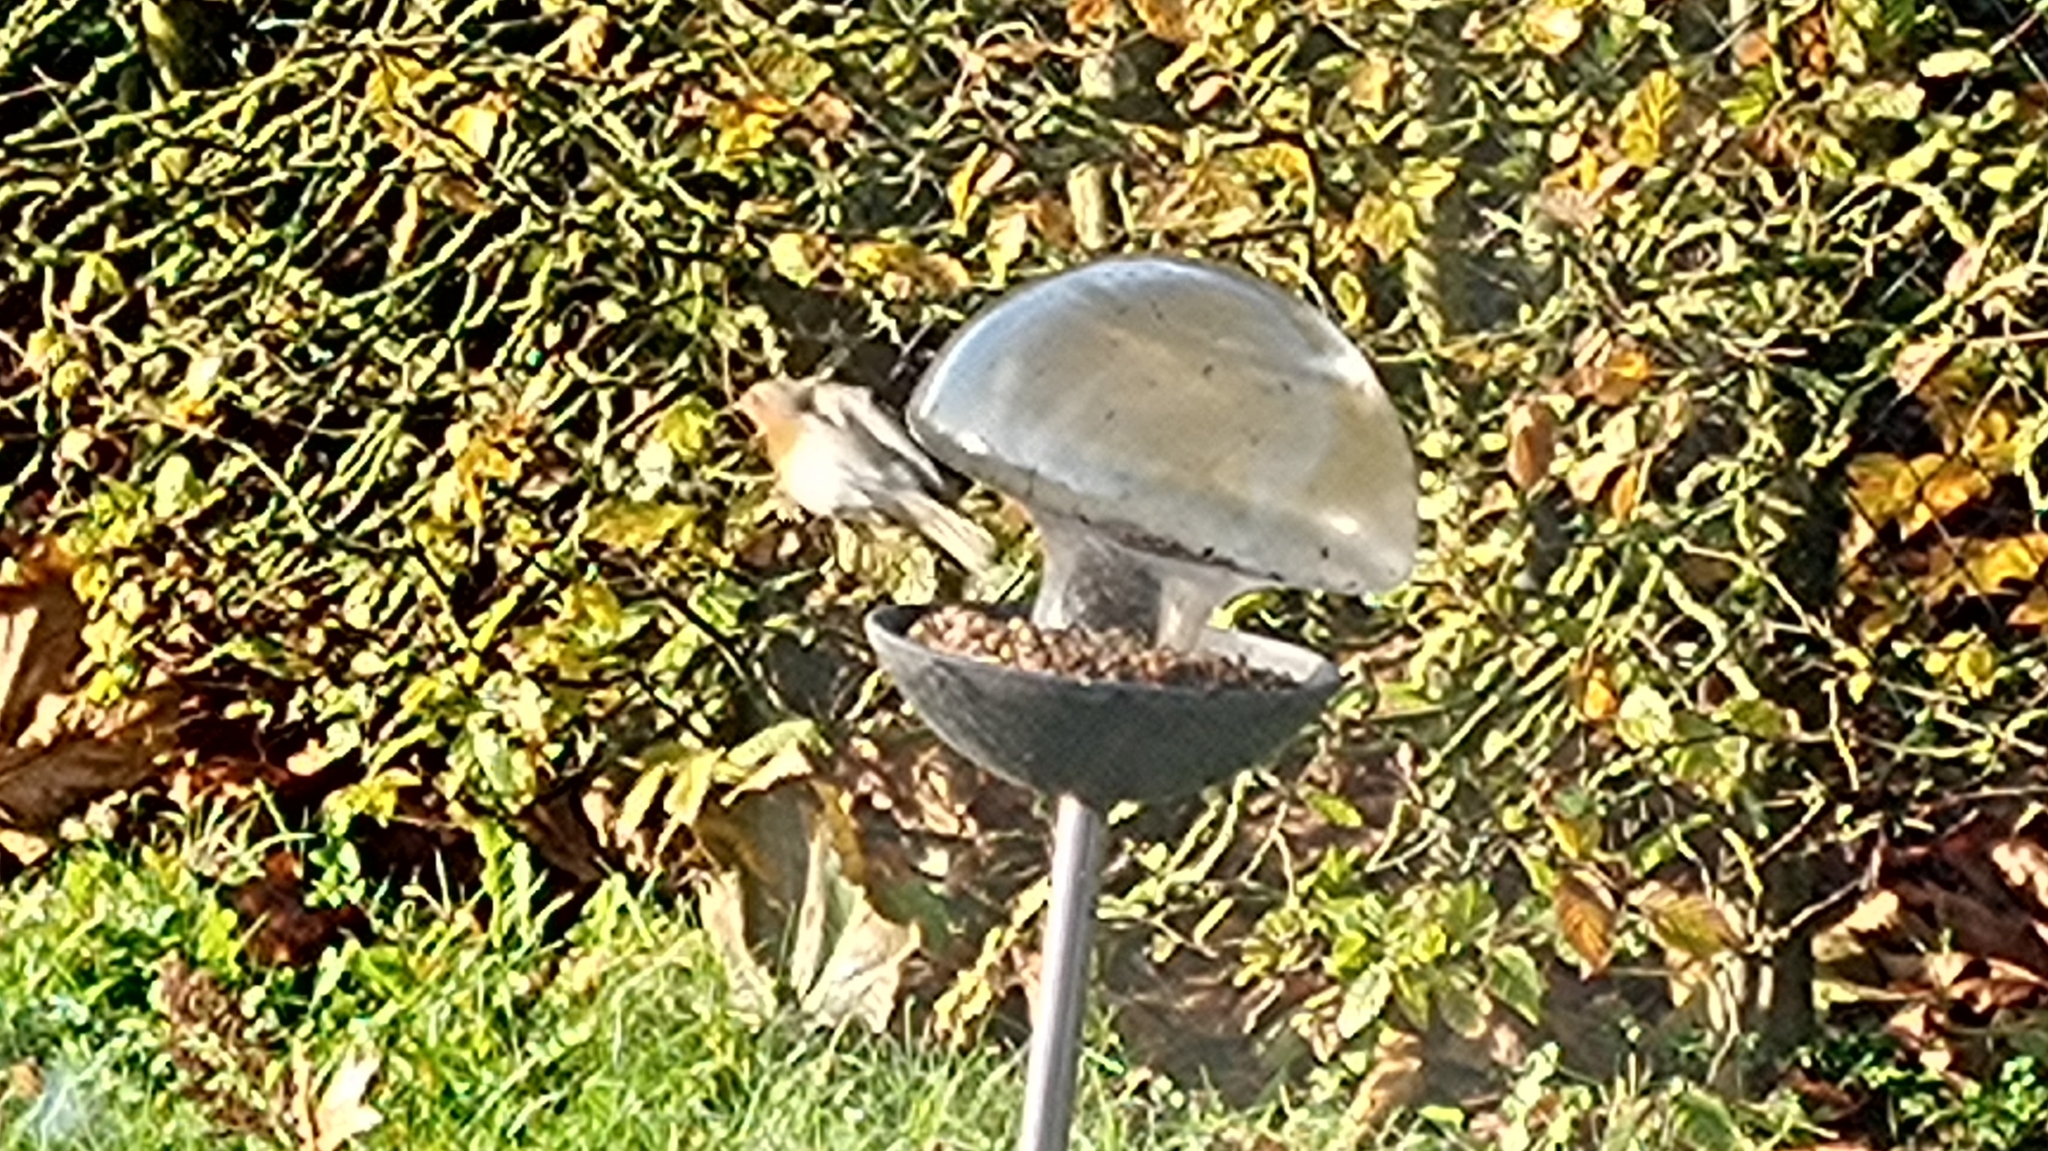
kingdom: Animalia
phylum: Chordata
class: Aves
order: Passeriformes
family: Muscicapidae
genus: Erithacus
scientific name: Erithacus rubecula
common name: European robin
